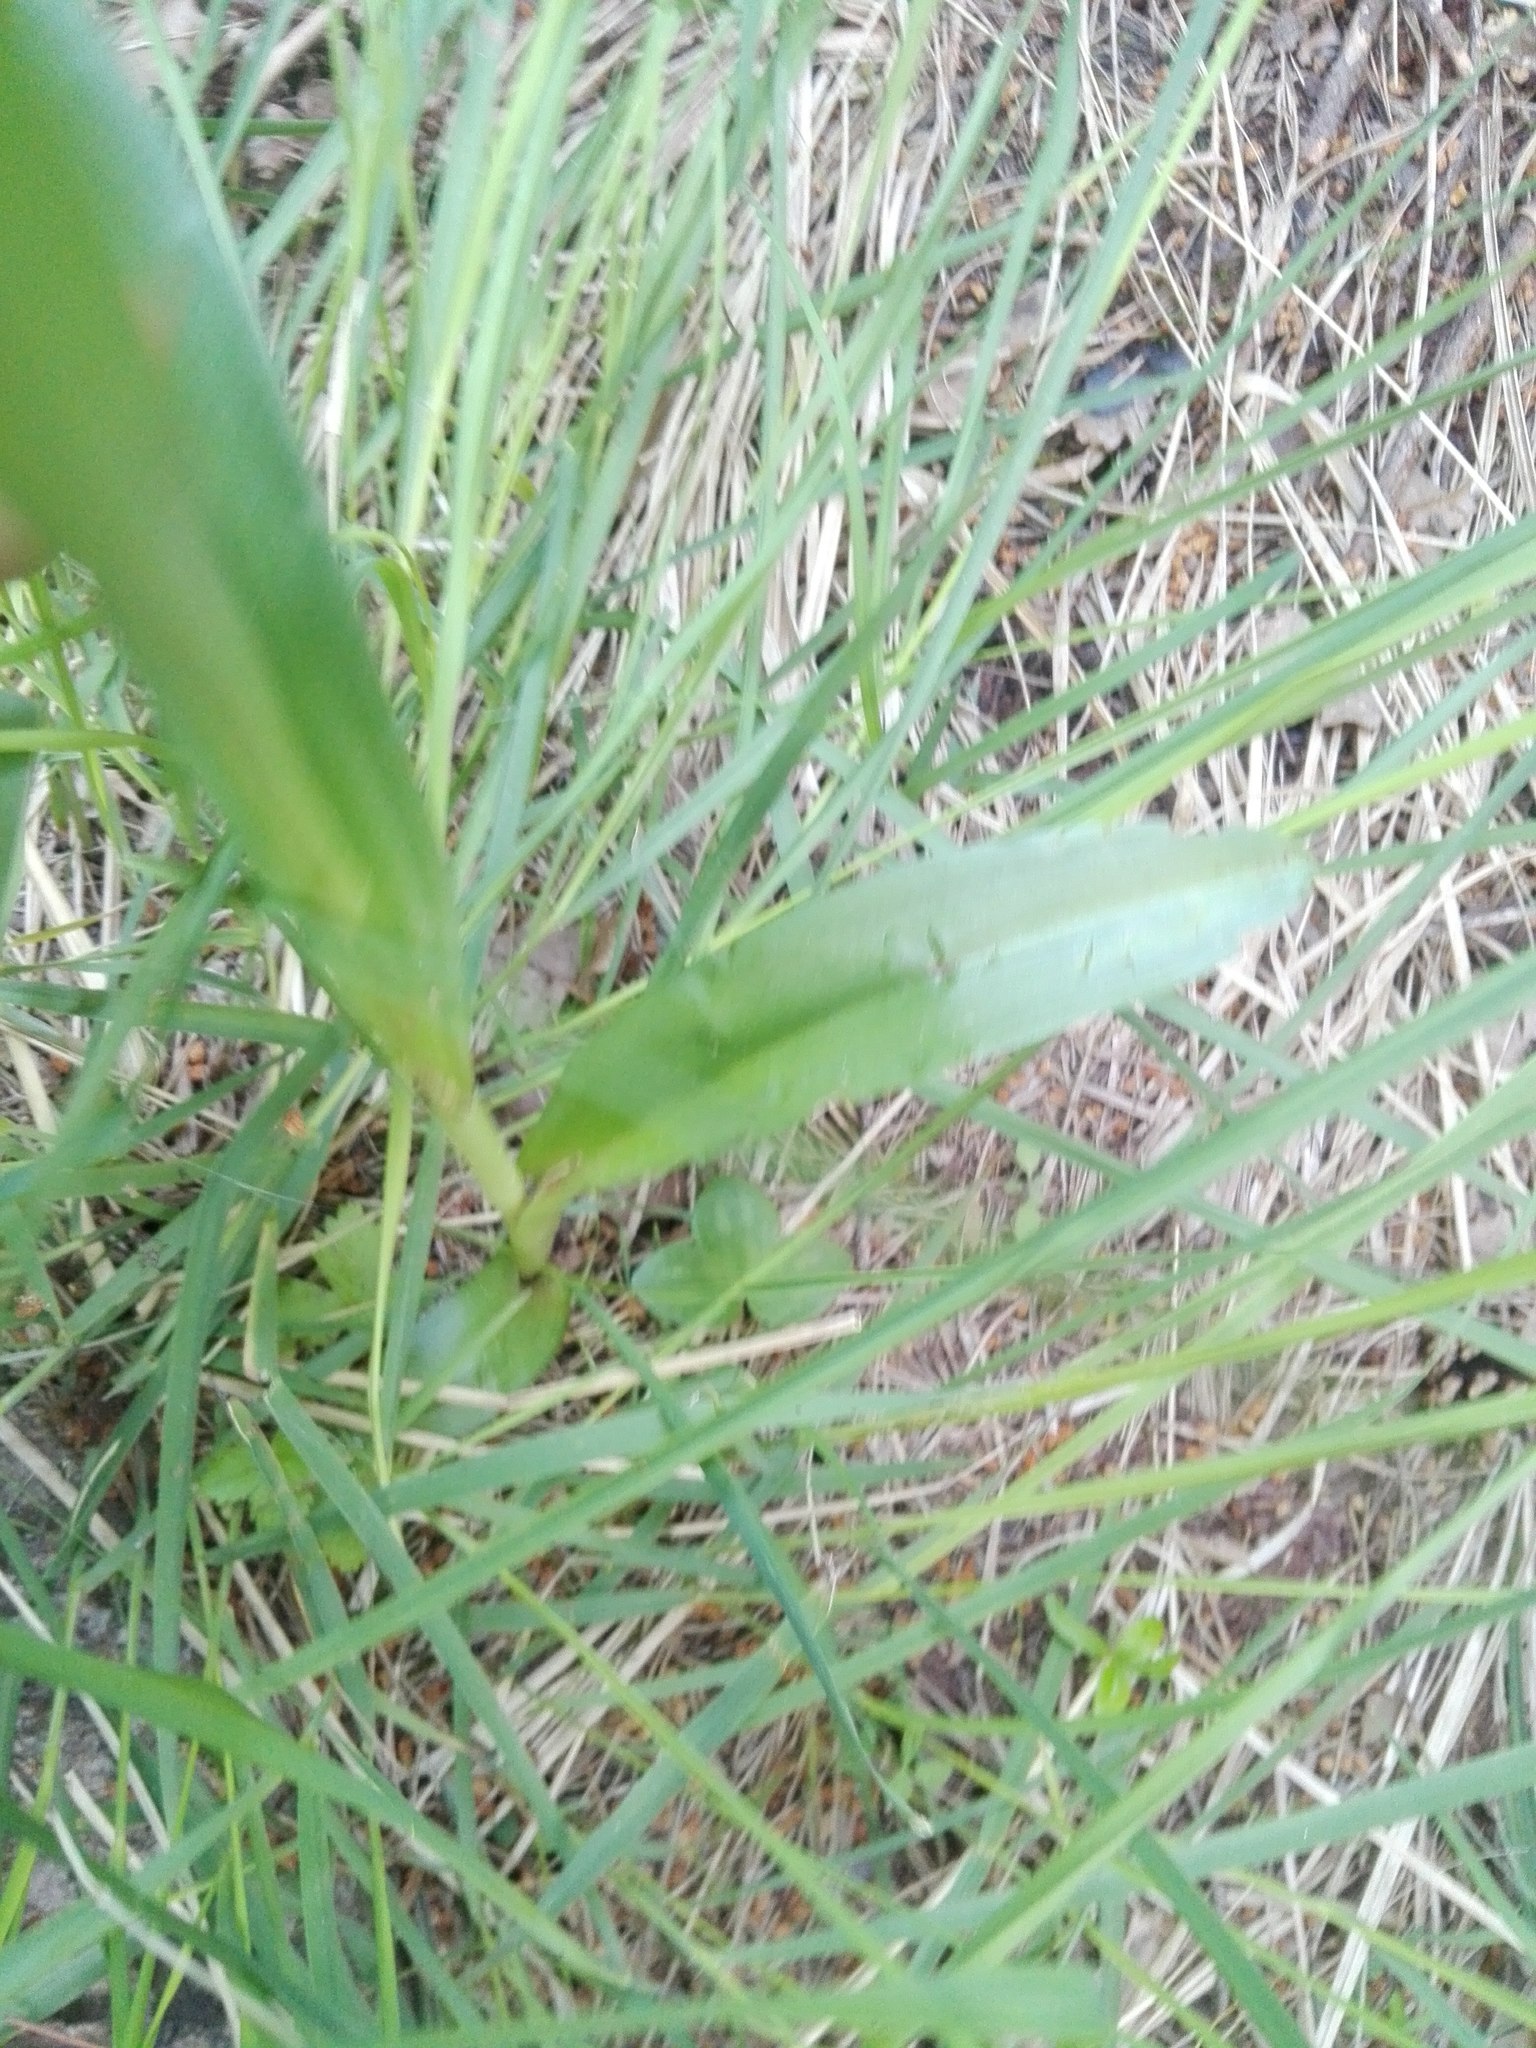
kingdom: Plantae
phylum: Tracheophyta
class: Liliopsida
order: Asparagales
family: Orchidaceae
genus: Dactylorhiza
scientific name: Dactylorhiza elata
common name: Stately dactylorhiza
